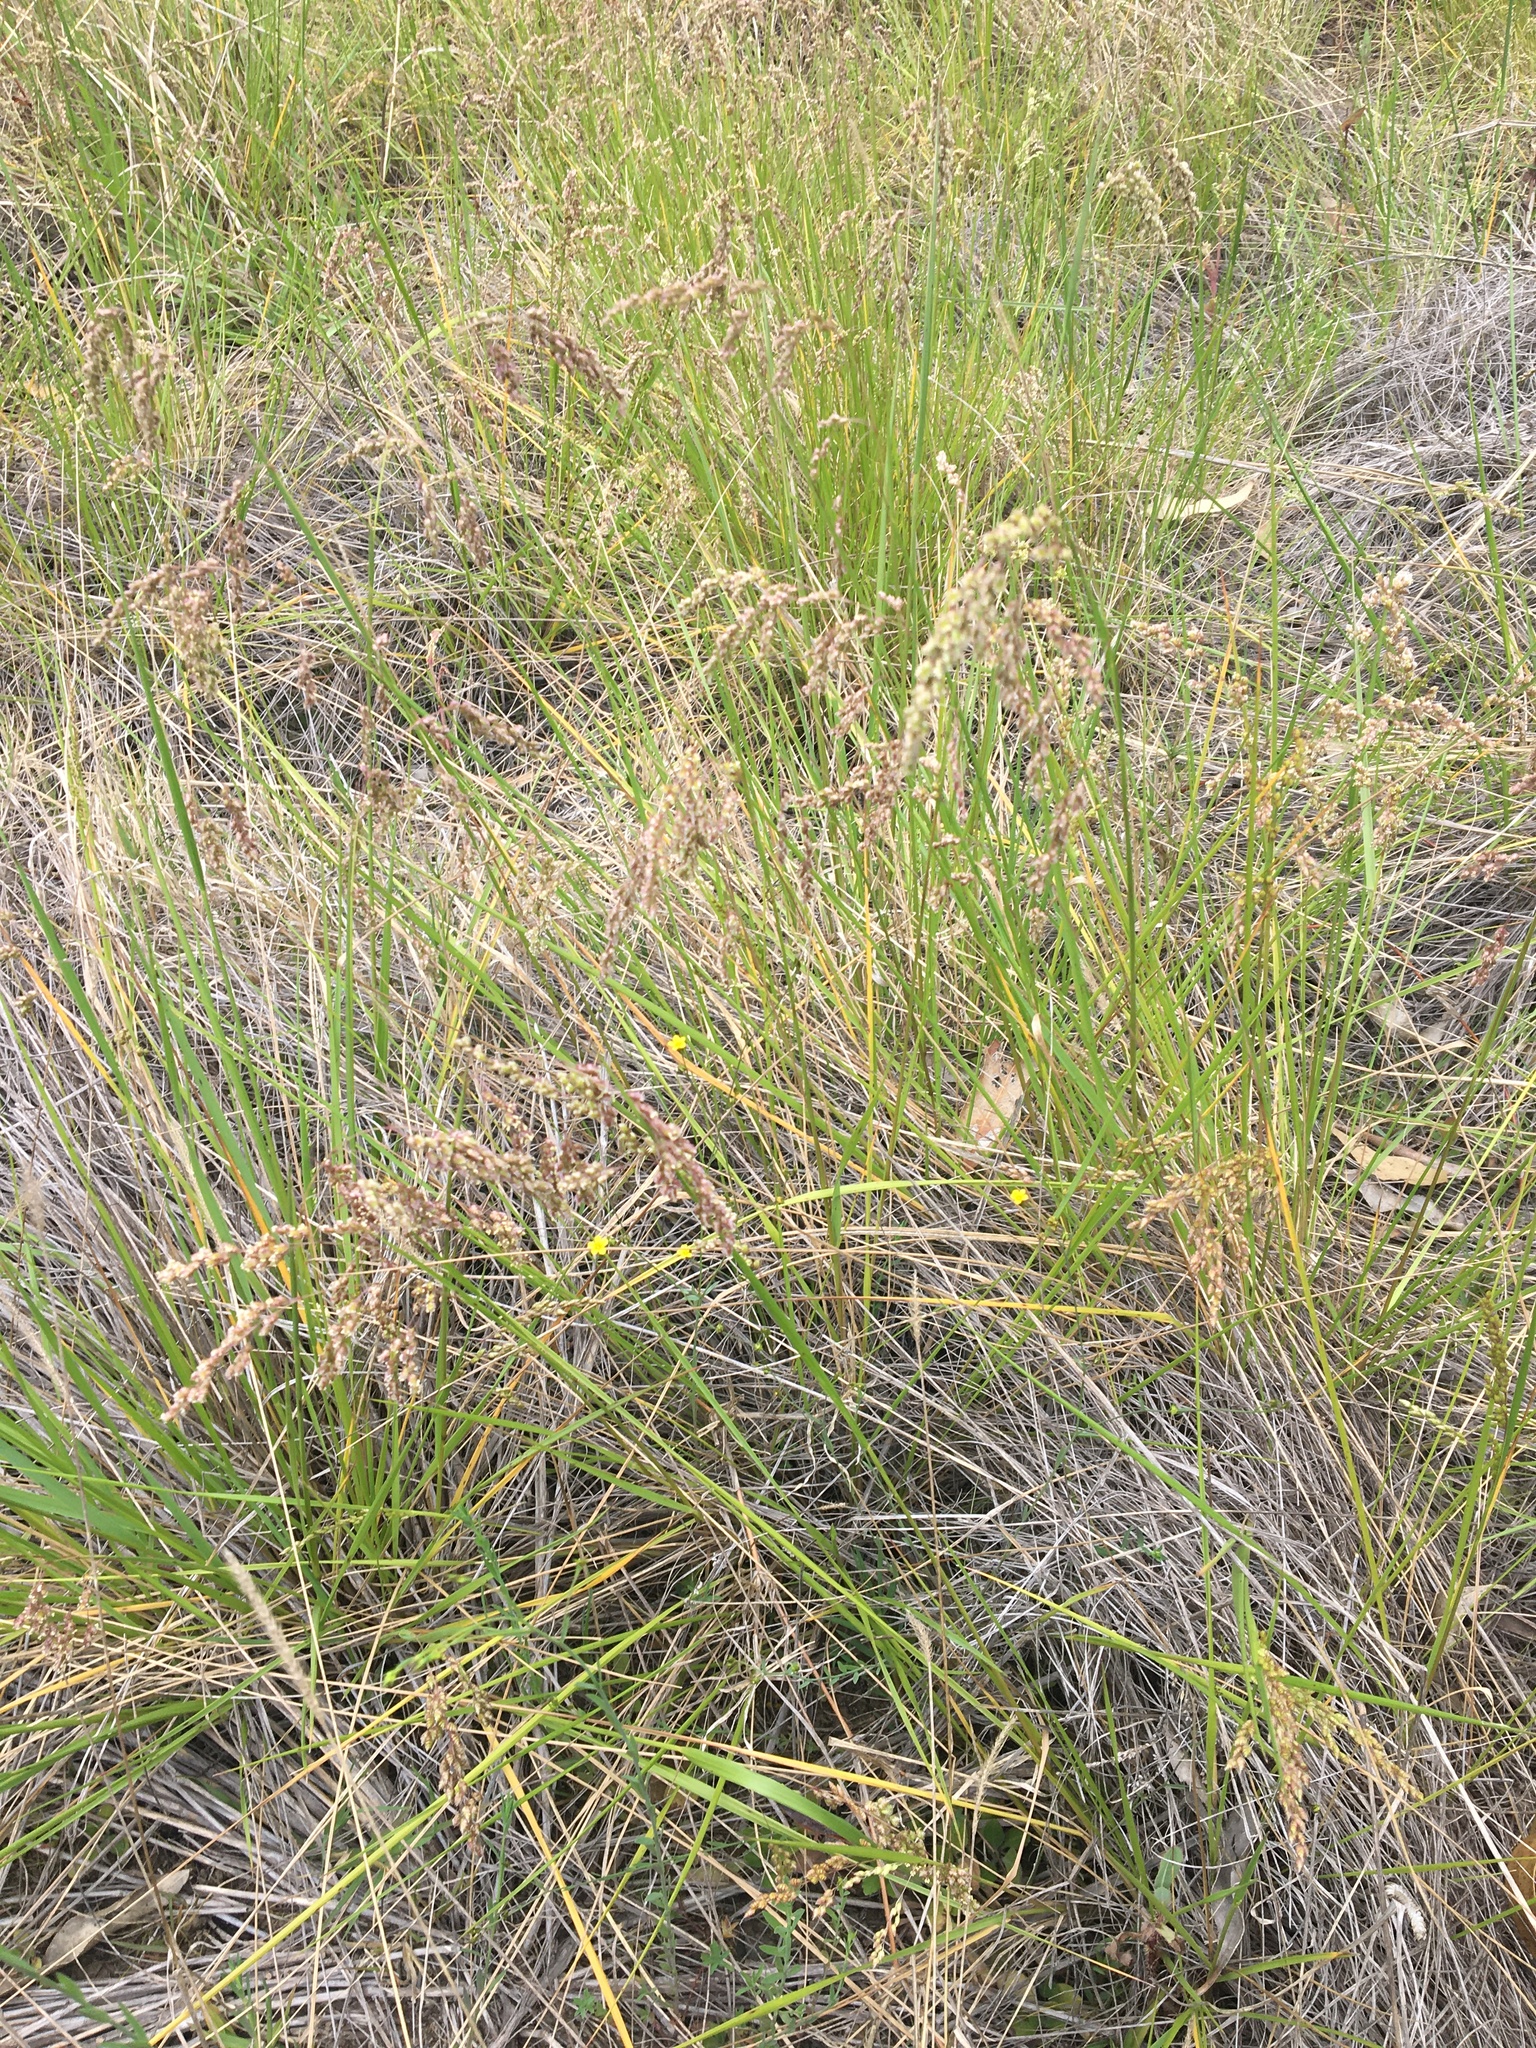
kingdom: Plantae
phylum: Tracheophyta
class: Liliopsida
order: Poales
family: Poaceae
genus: Chascolytrum
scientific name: Chascolytrum subaristatum
